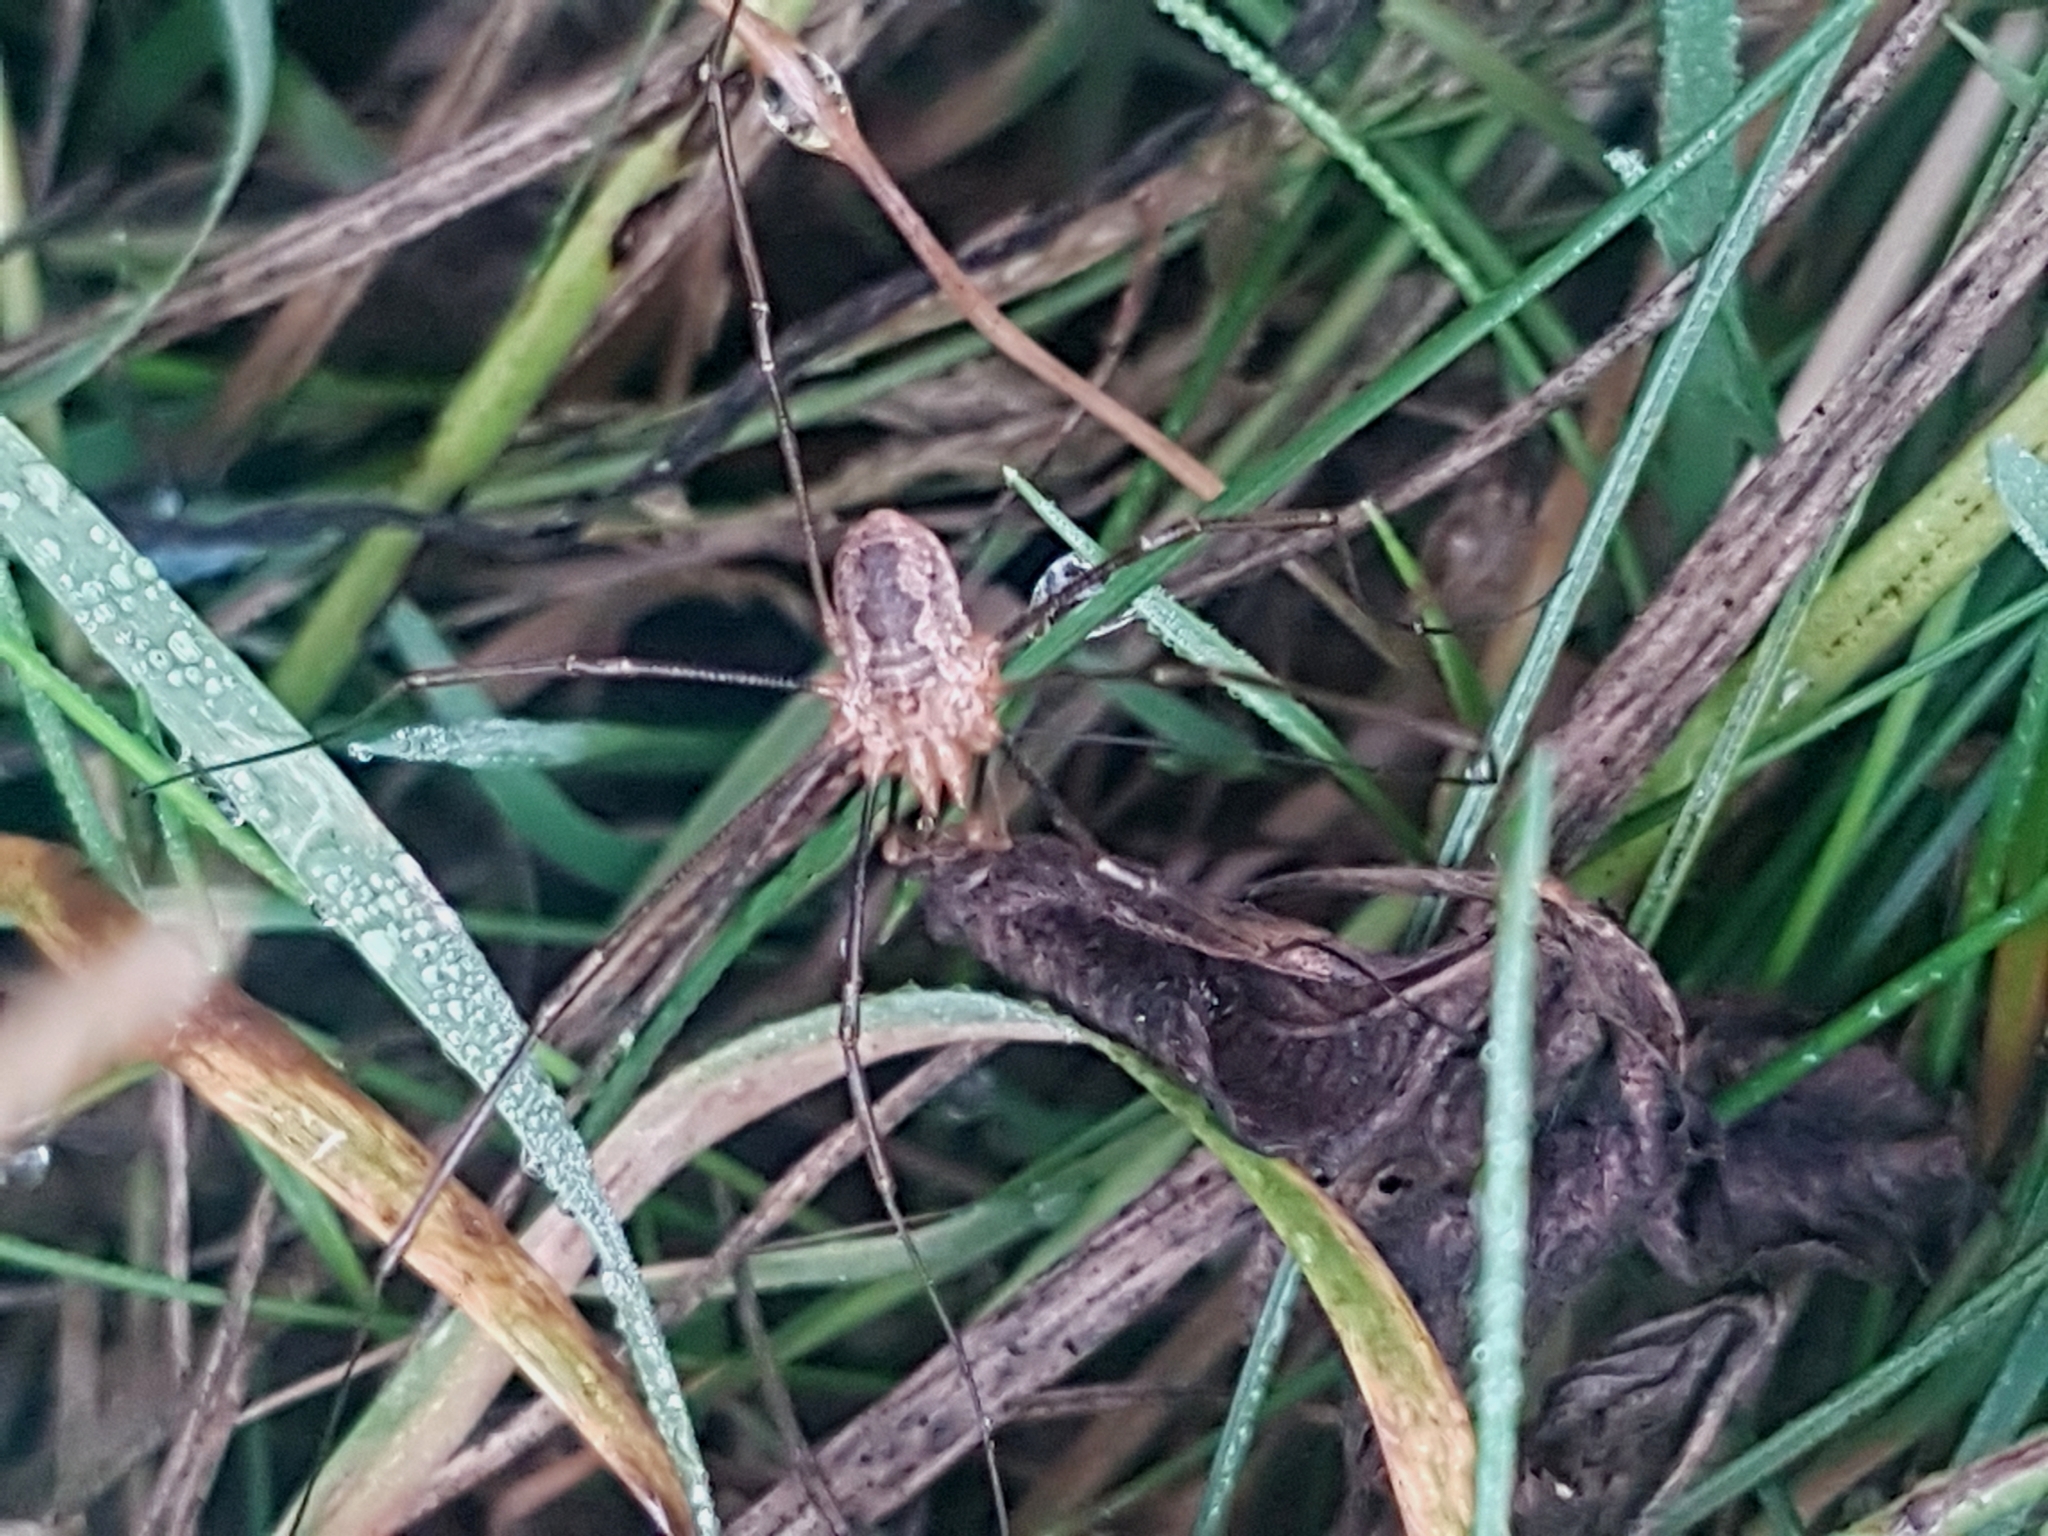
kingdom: Animalia
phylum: Arthropoda
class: Arachnida
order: Opiliones
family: Phalangiidae
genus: Phalangium
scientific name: Phalangium opilio
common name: Daddy longleg
